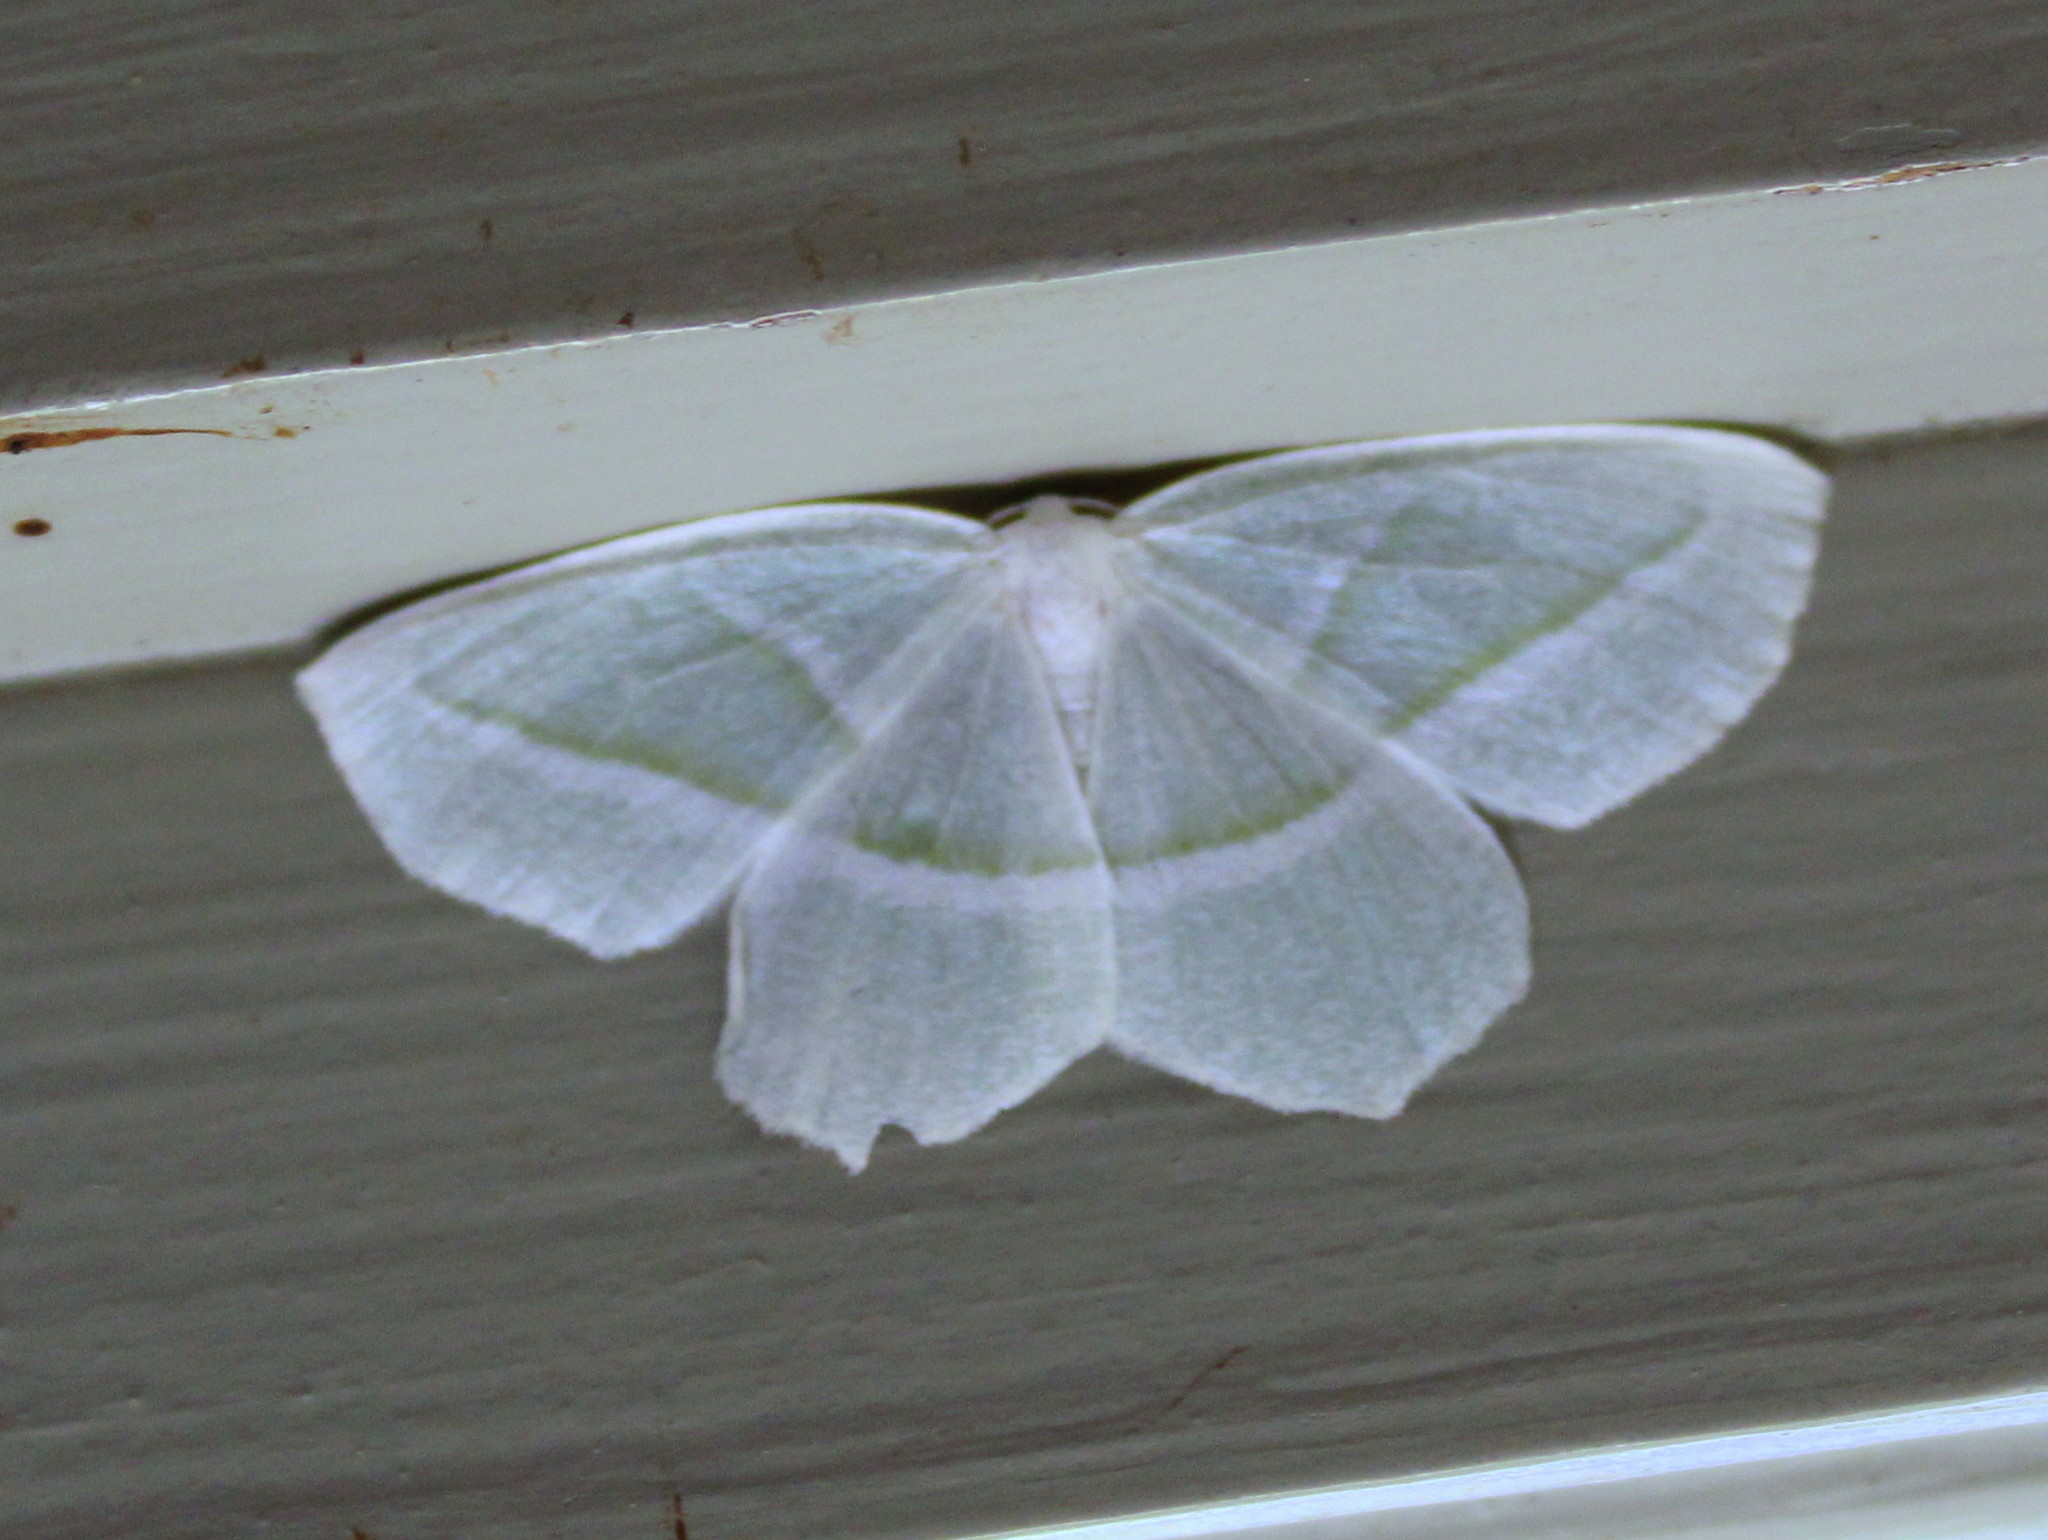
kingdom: Animalia
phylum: Arthropoda
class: Insecta
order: Lepidoptera
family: Geometridae
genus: Campaea
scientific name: Campaea perlata
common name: Fringed looper
